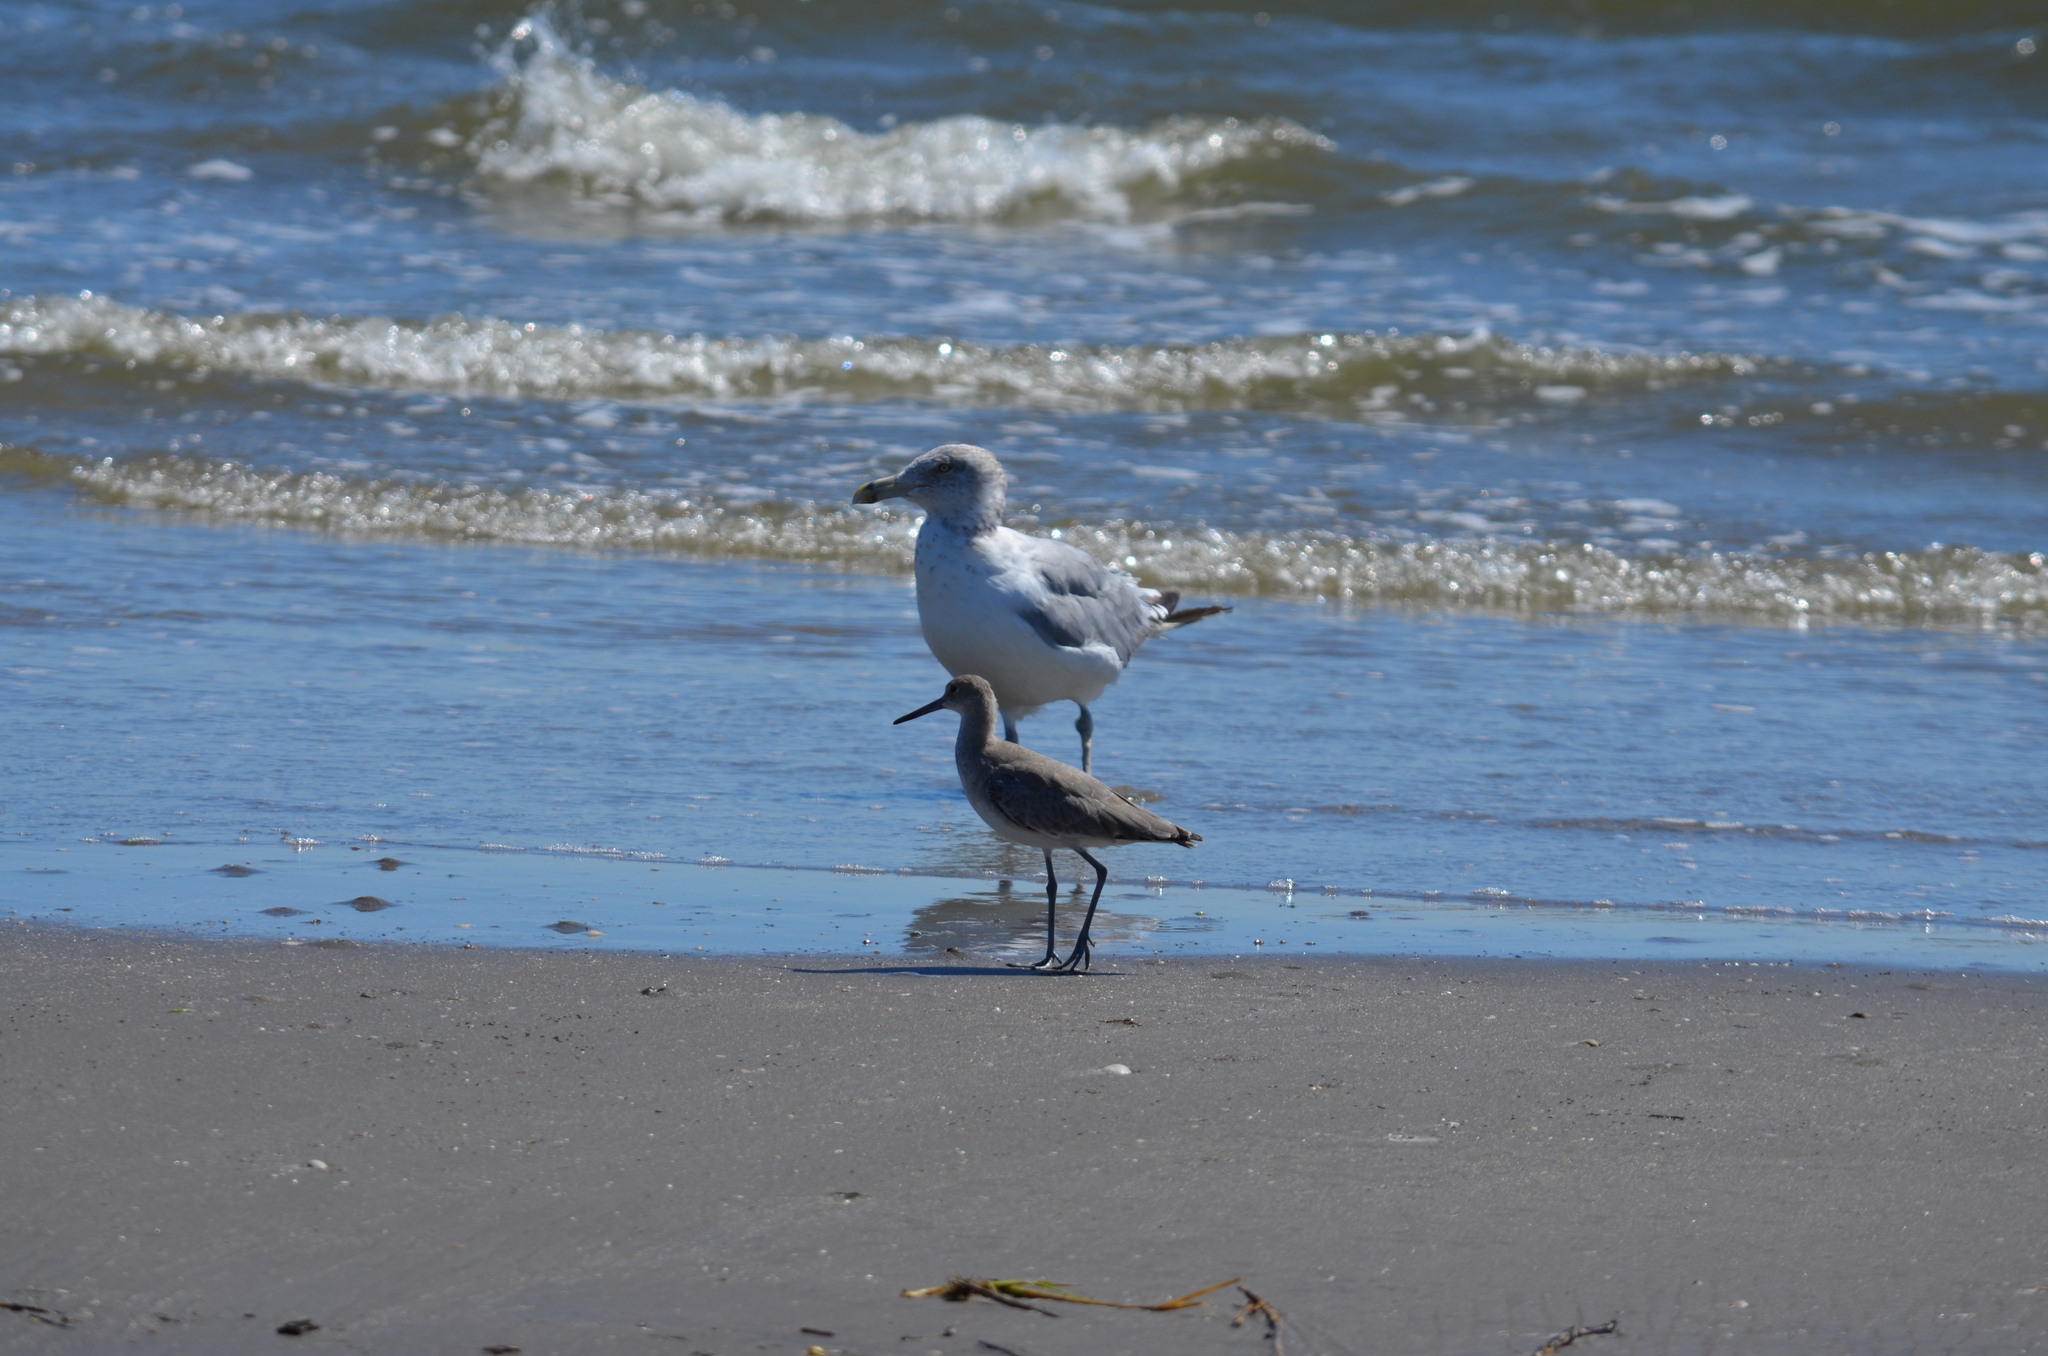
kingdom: Animalia
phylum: Chordata
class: Aves
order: Charadriiformes
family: Scolopacidae
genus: Tringa
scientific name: Tringa semipalmata
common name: Willet
